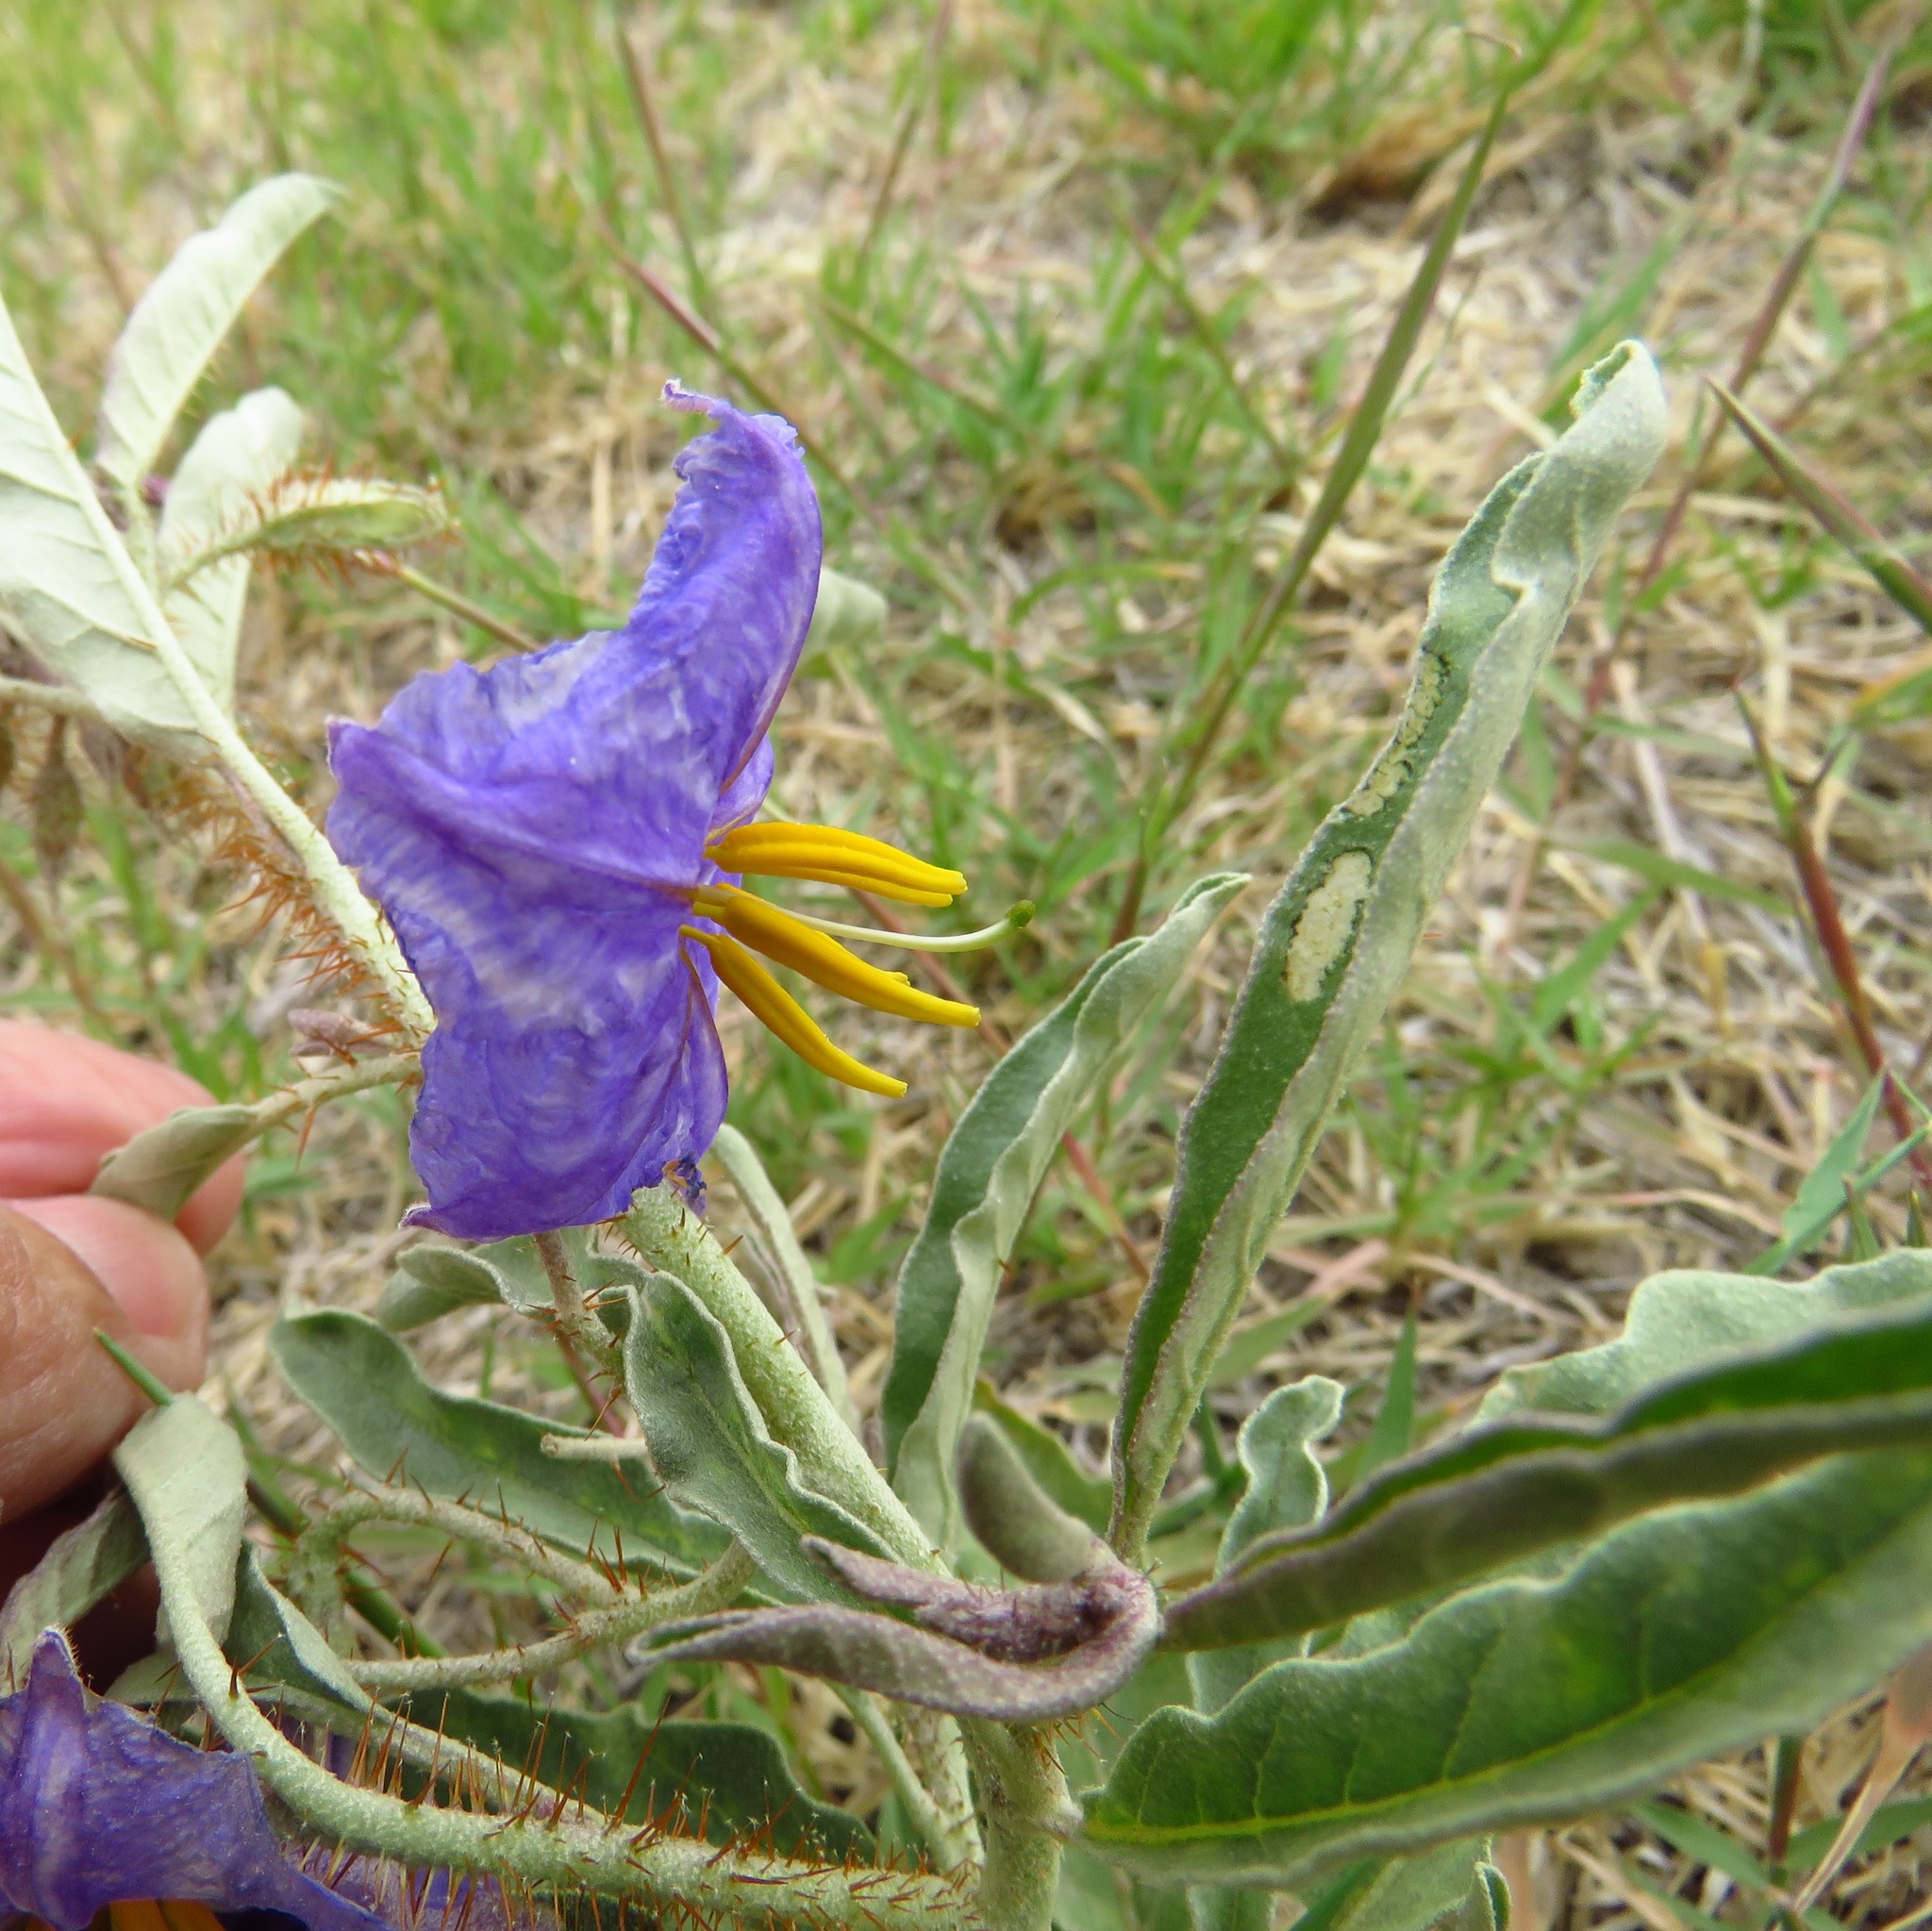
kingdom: Plantae
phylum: Tracheophyta
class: Magnoliopsida
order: Solanales
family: Solanaceae
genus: Solanum
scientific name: Solanum elaeagnifolium
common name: Silverleaf nightshade
